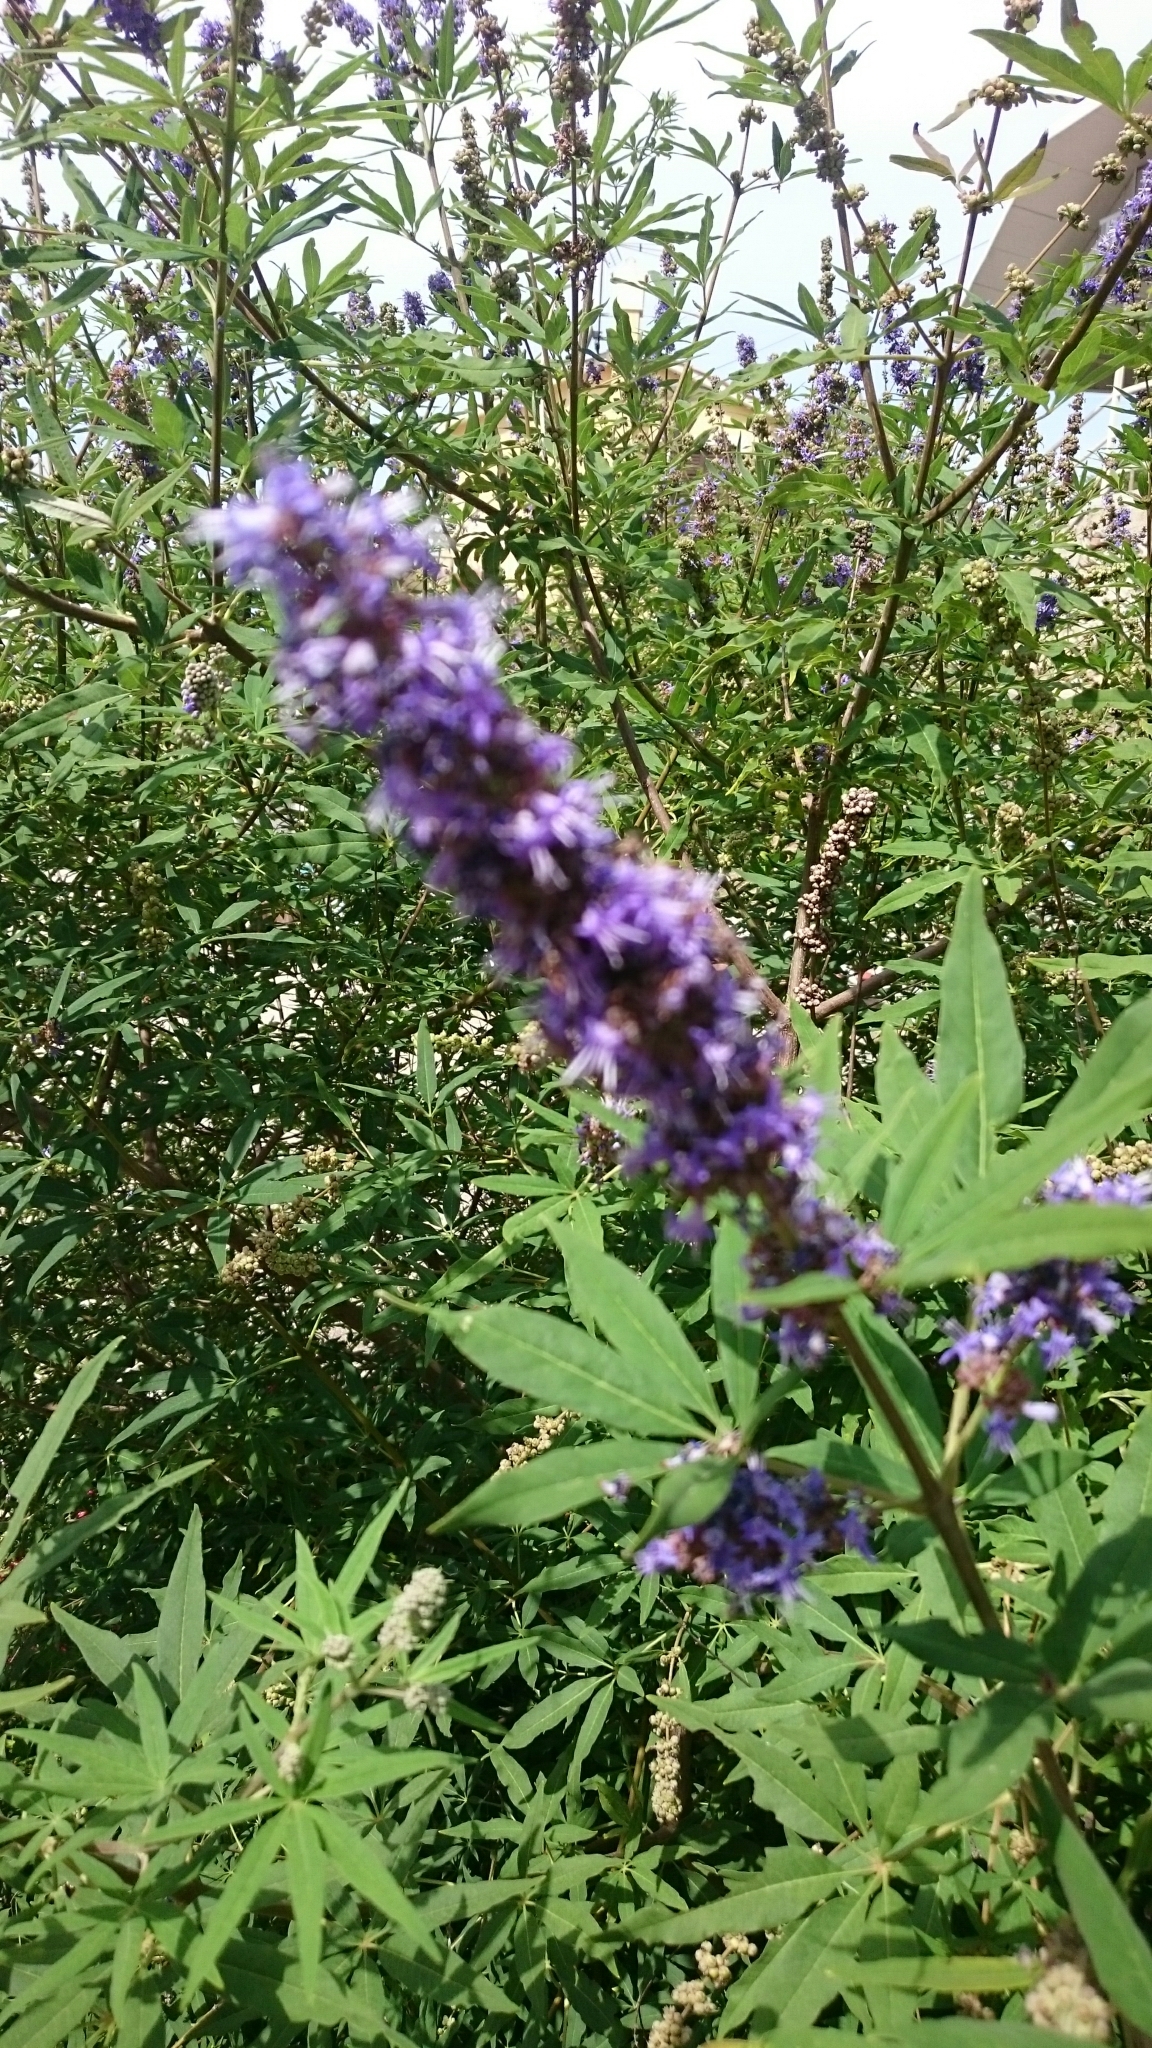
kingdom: Plantae
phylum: Tracheophyta
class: Magnoliopsida
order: Lamiales
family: Lamiaceae
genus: Vitex
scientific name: Vitex agnus-castus
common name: Chasteberry
